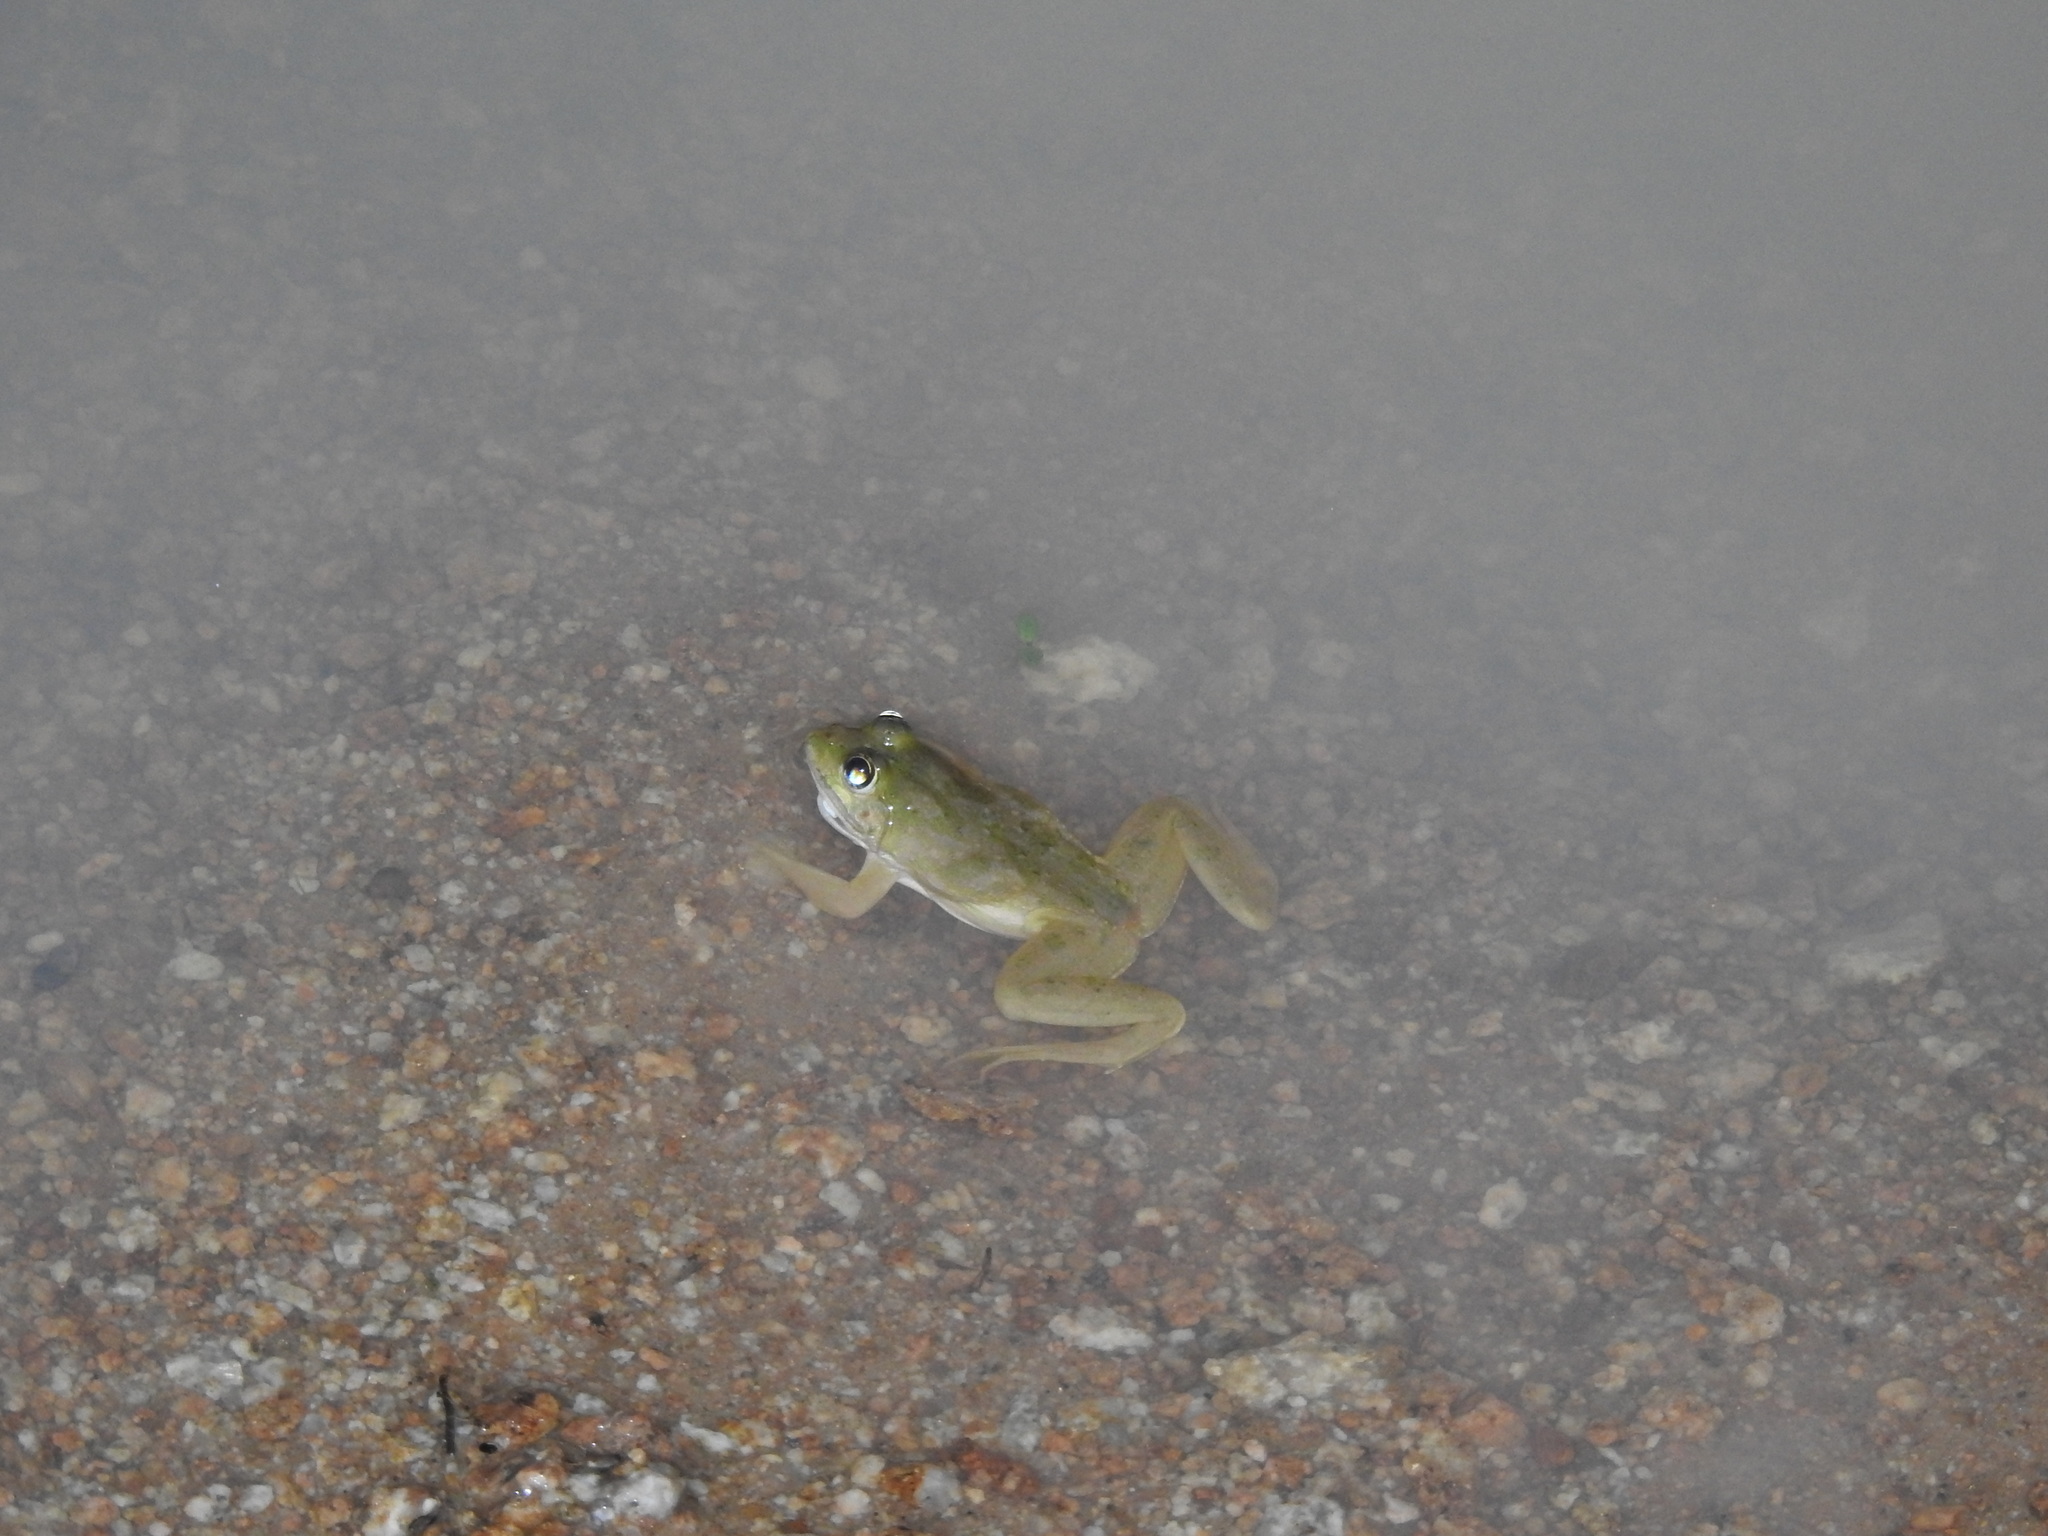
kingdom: Animalia
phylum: Chordata
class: Amphibia
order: Anura
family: Dicroglossidae
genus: Euphlyctis
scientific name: Euphlyctis cyanophlyctis
